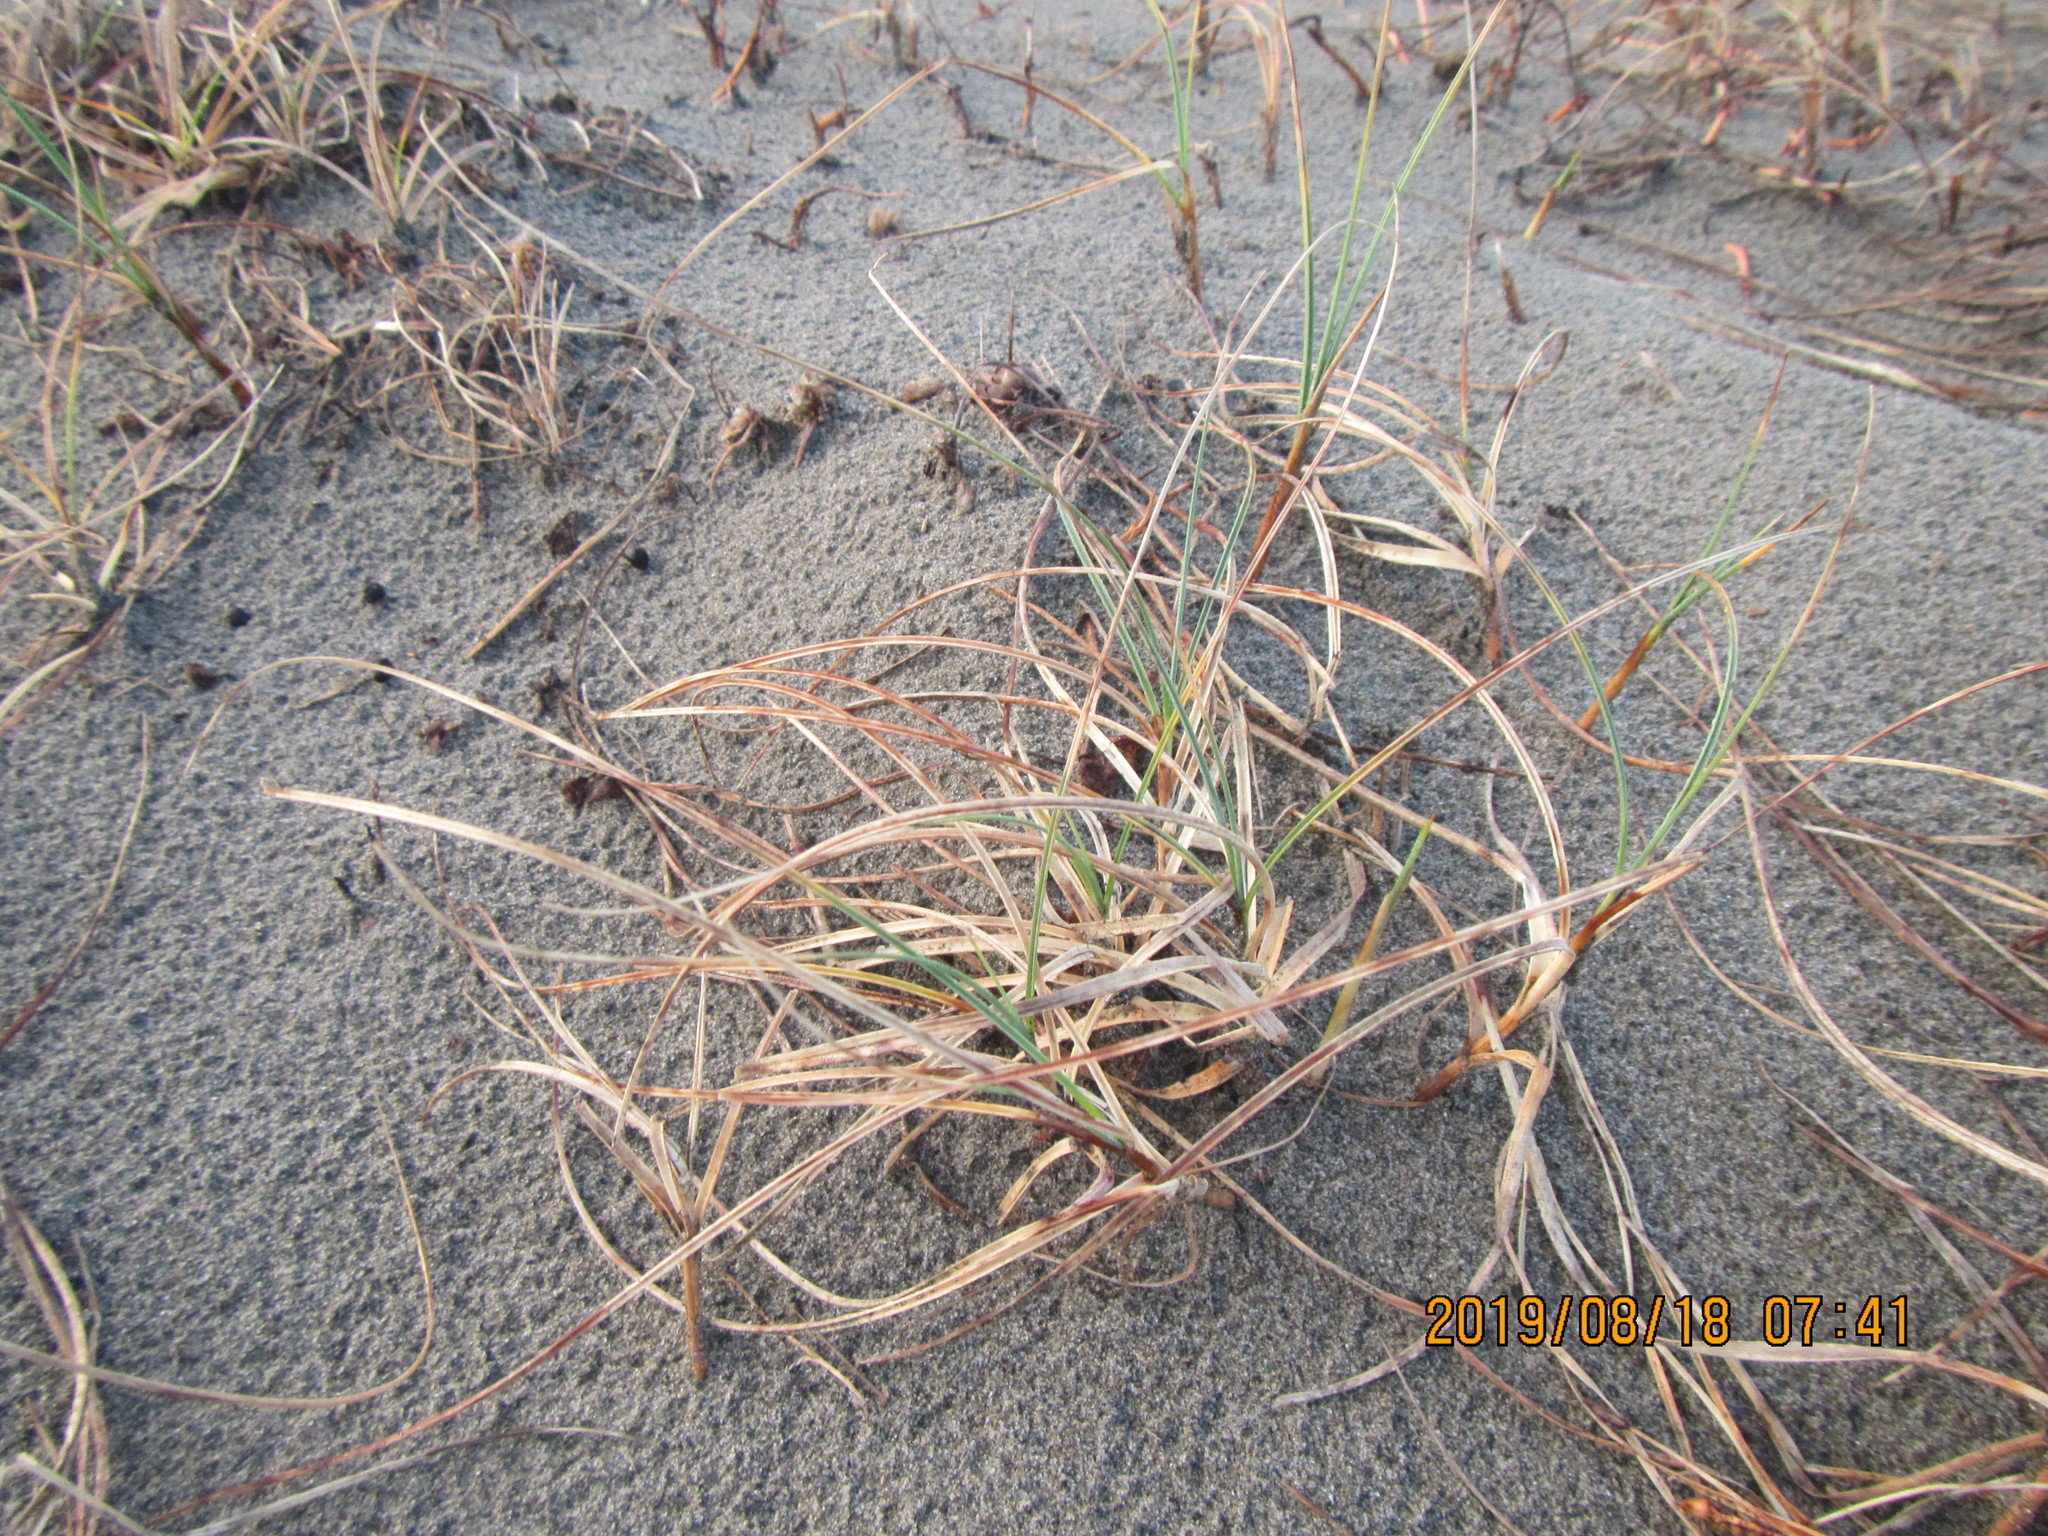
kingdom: Plantae
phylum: Tracheophyta
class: Liliopsida
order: Poales
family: Cyperaceae
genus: Carex
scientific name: Carex pumila
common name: Dwarf sedge
